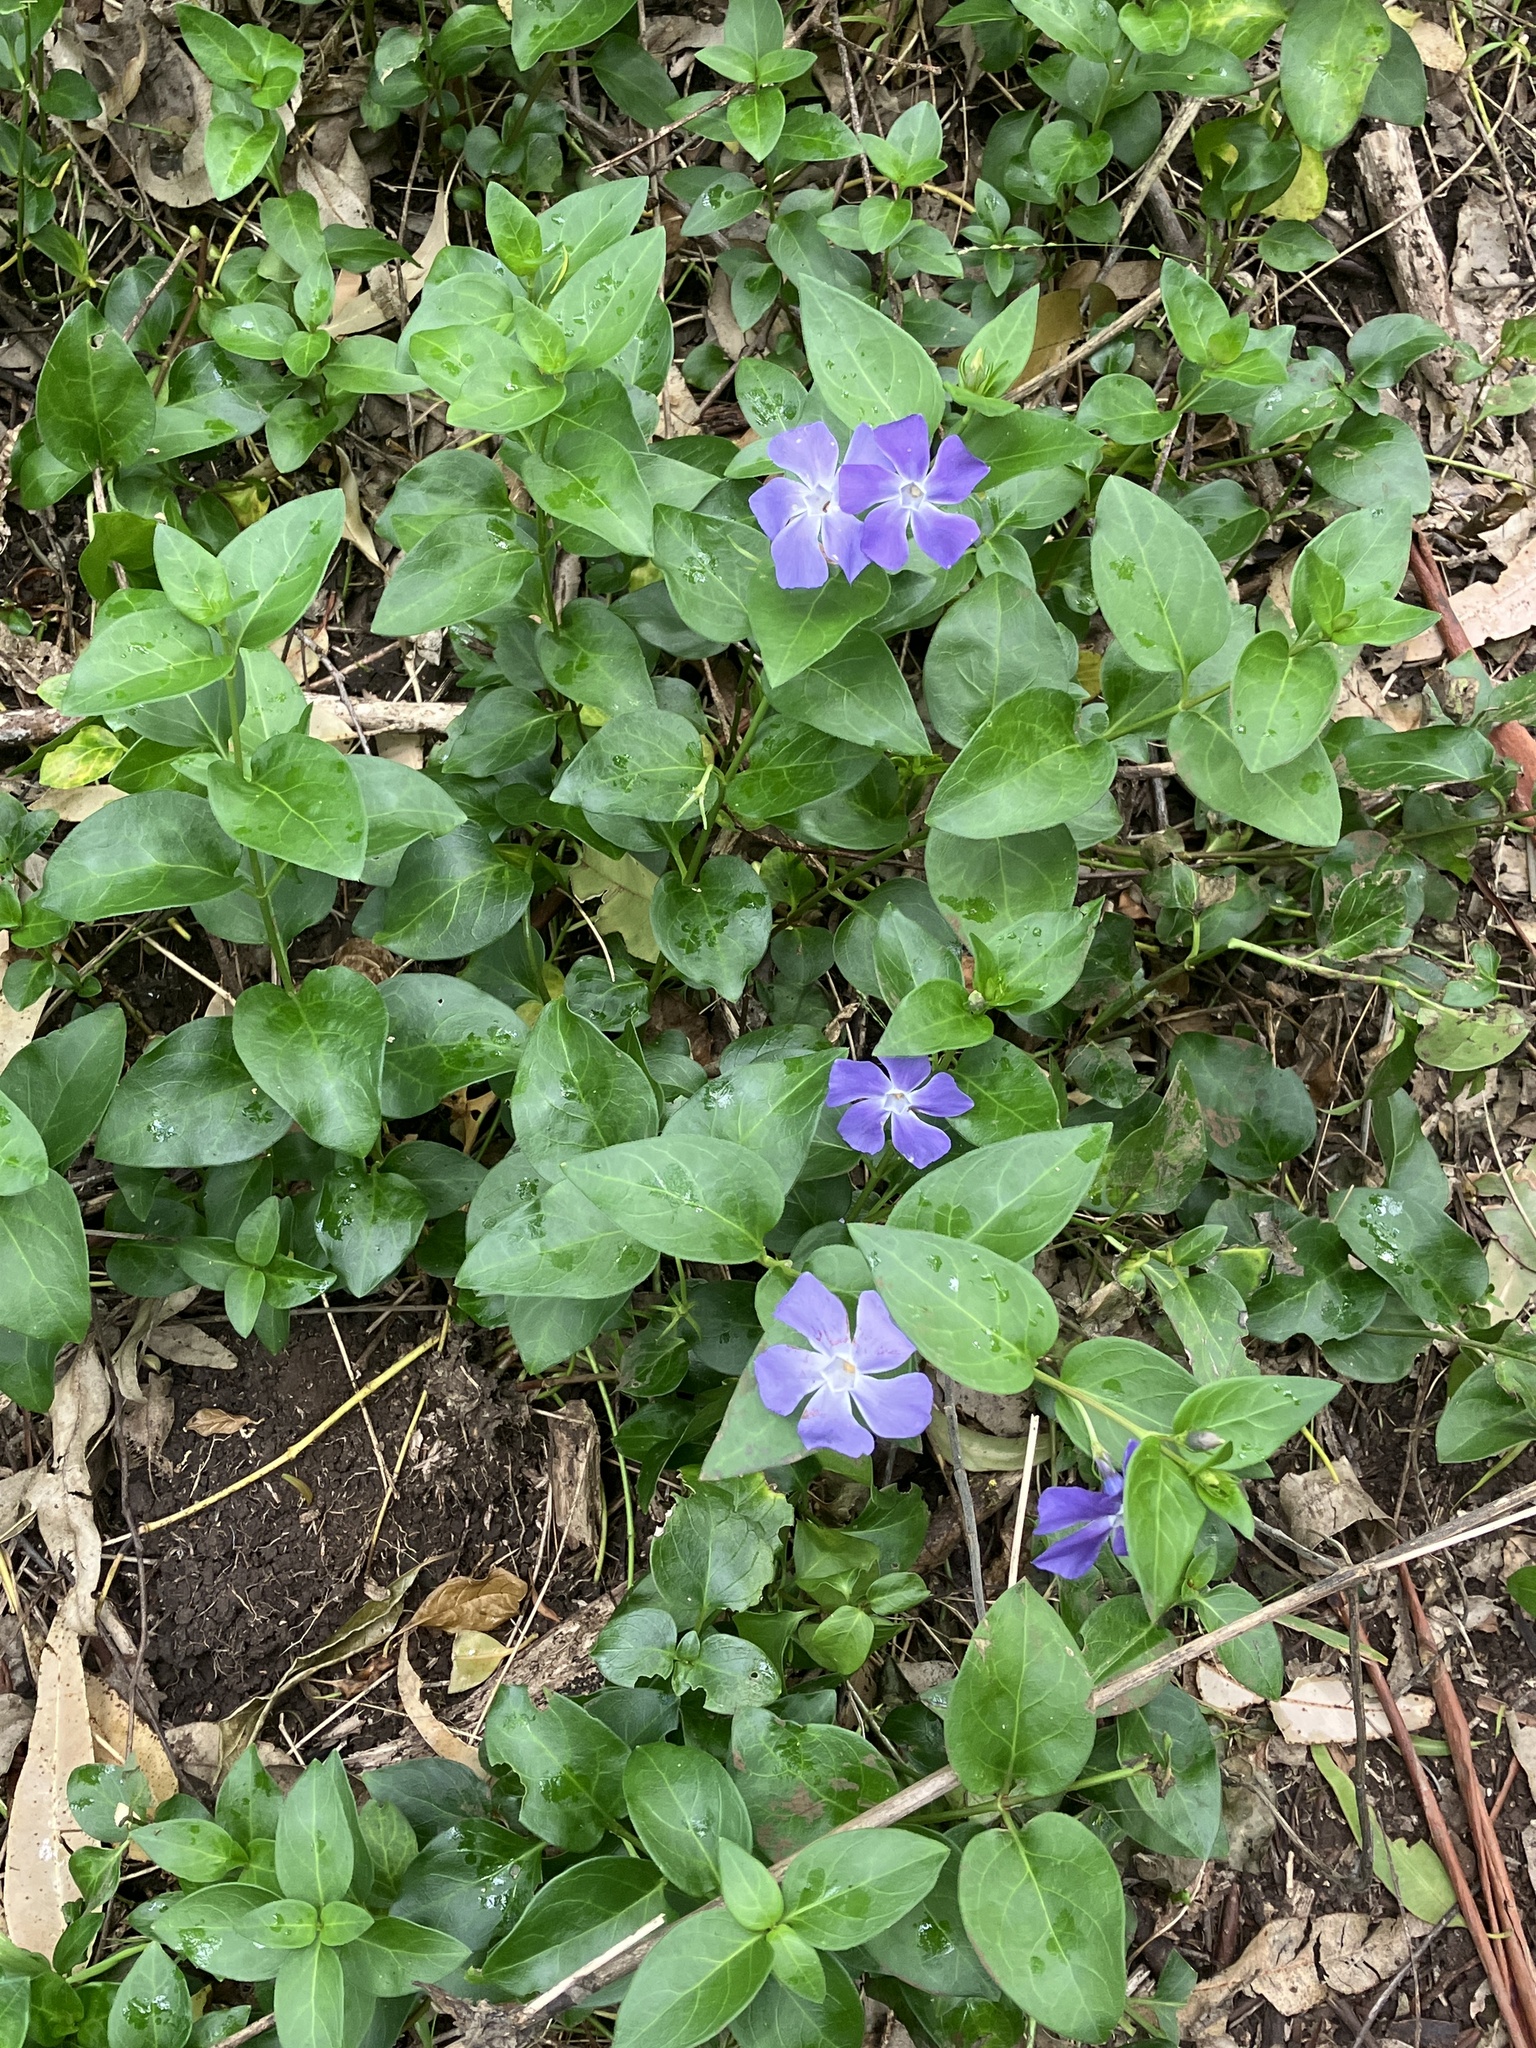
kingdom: Plantae
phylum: Tracheophyta
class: Magnoliopsida
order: Gentianales
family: Apocynaceae
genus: Vinca
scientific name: Vinca major
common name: Greater periwinkle
